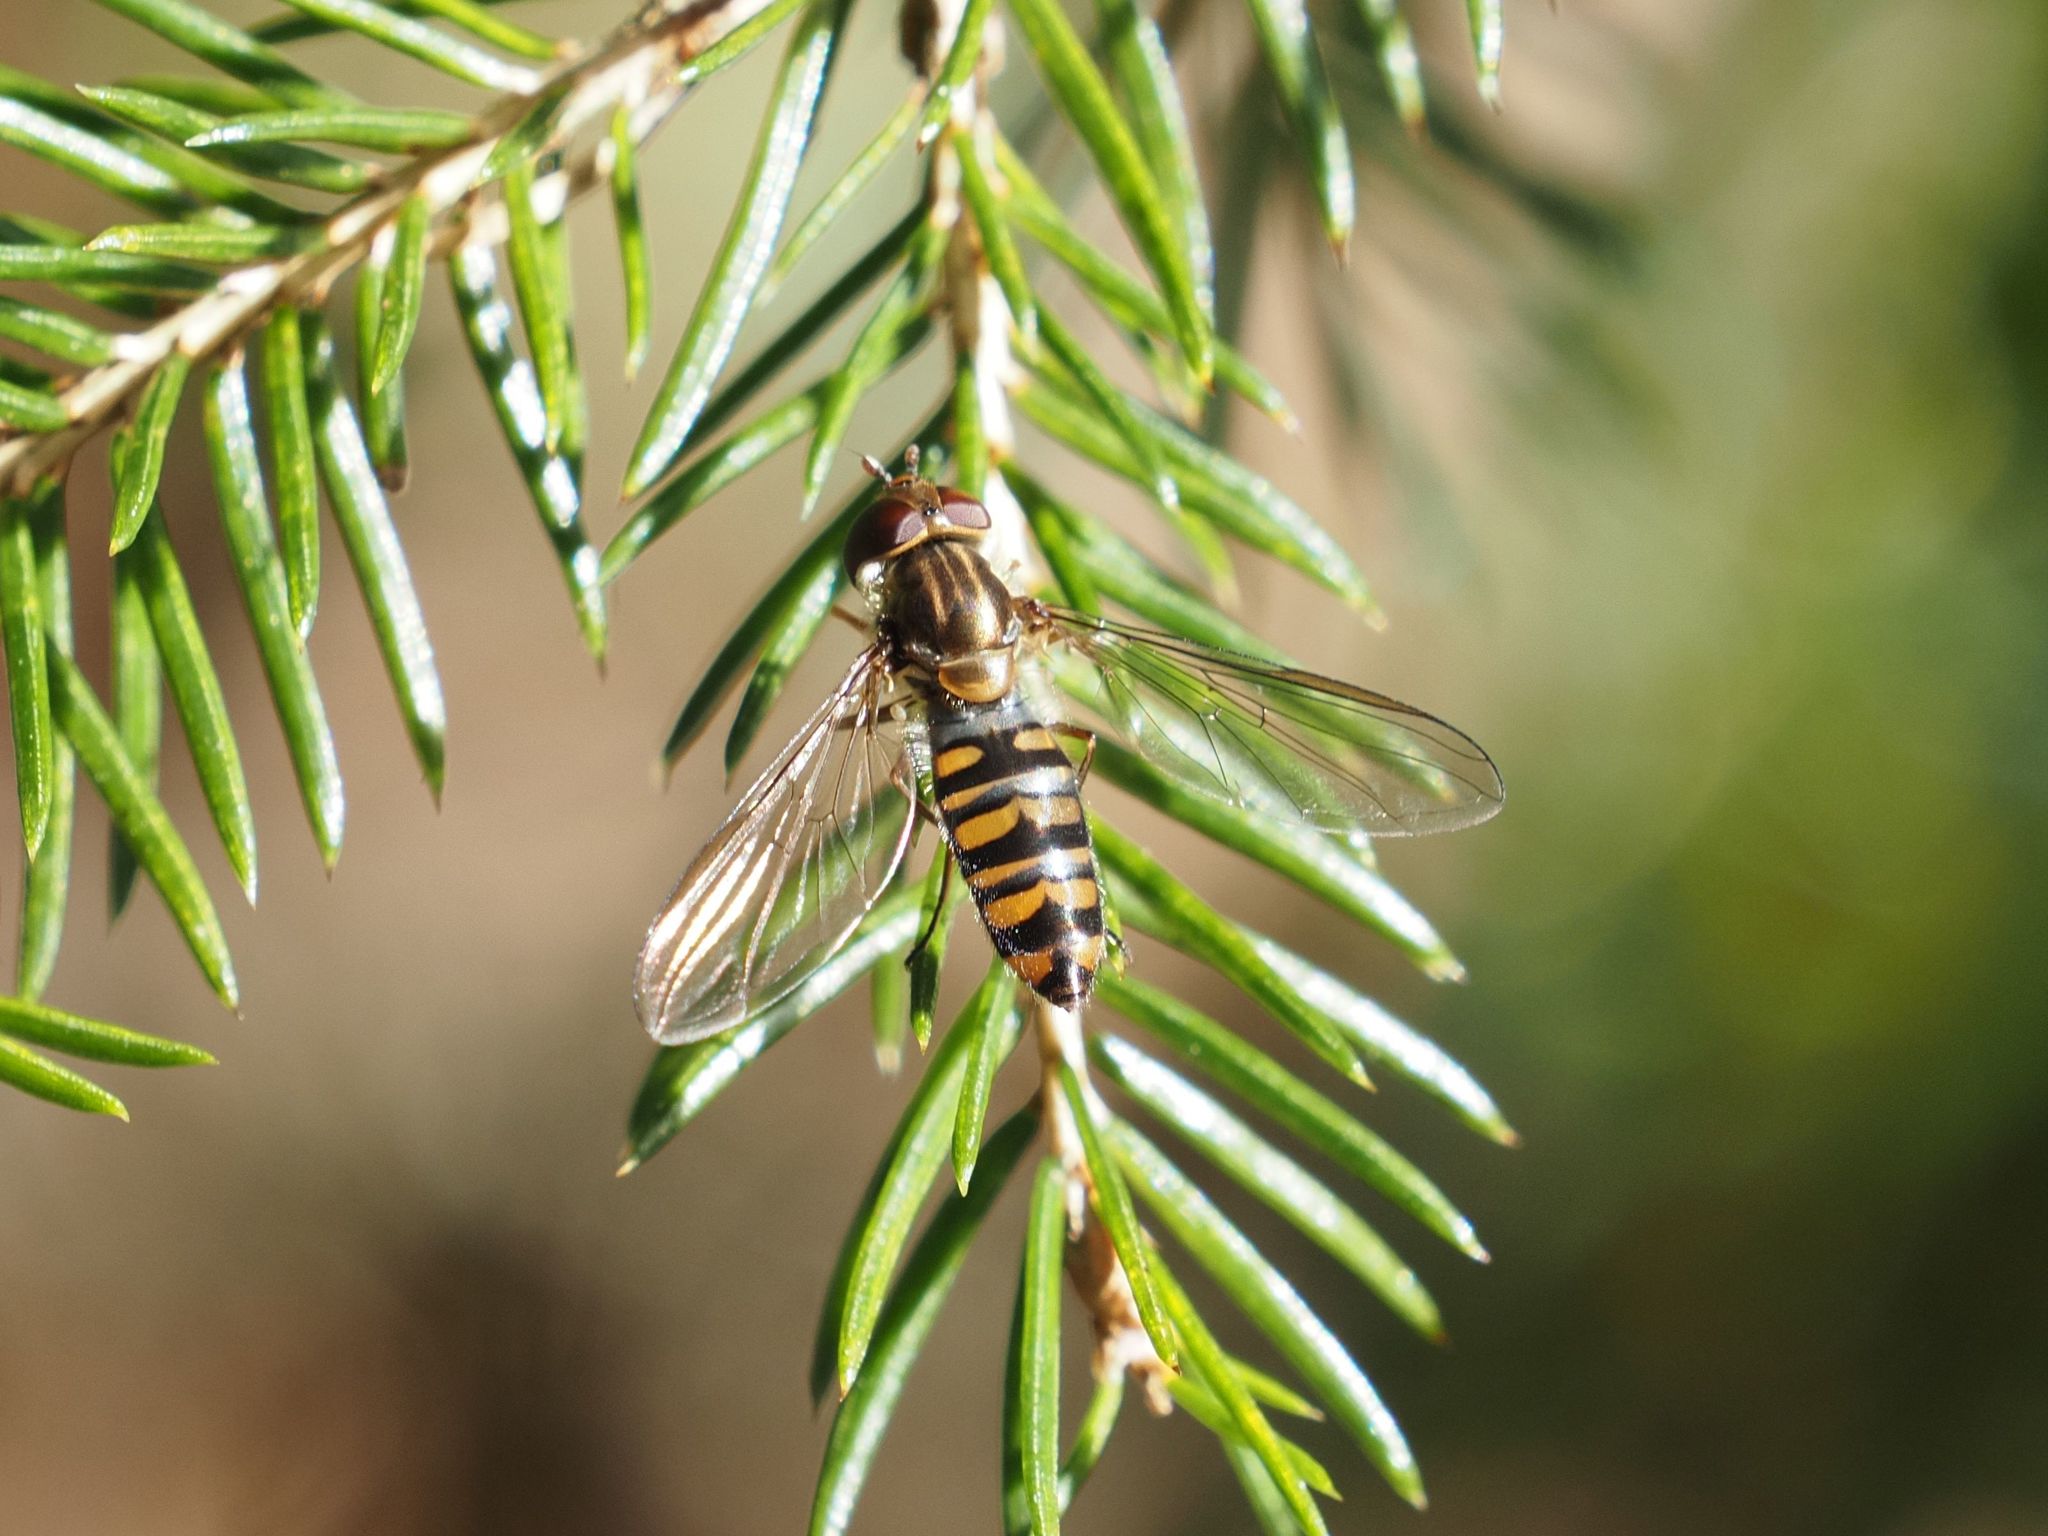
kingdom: Animalia
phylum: Arthropoda
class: Insecta
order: Diptera
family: Syrphidae
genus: Episyrphus
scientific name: Episyrphus balteatus
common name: Marmalade hoverfly
